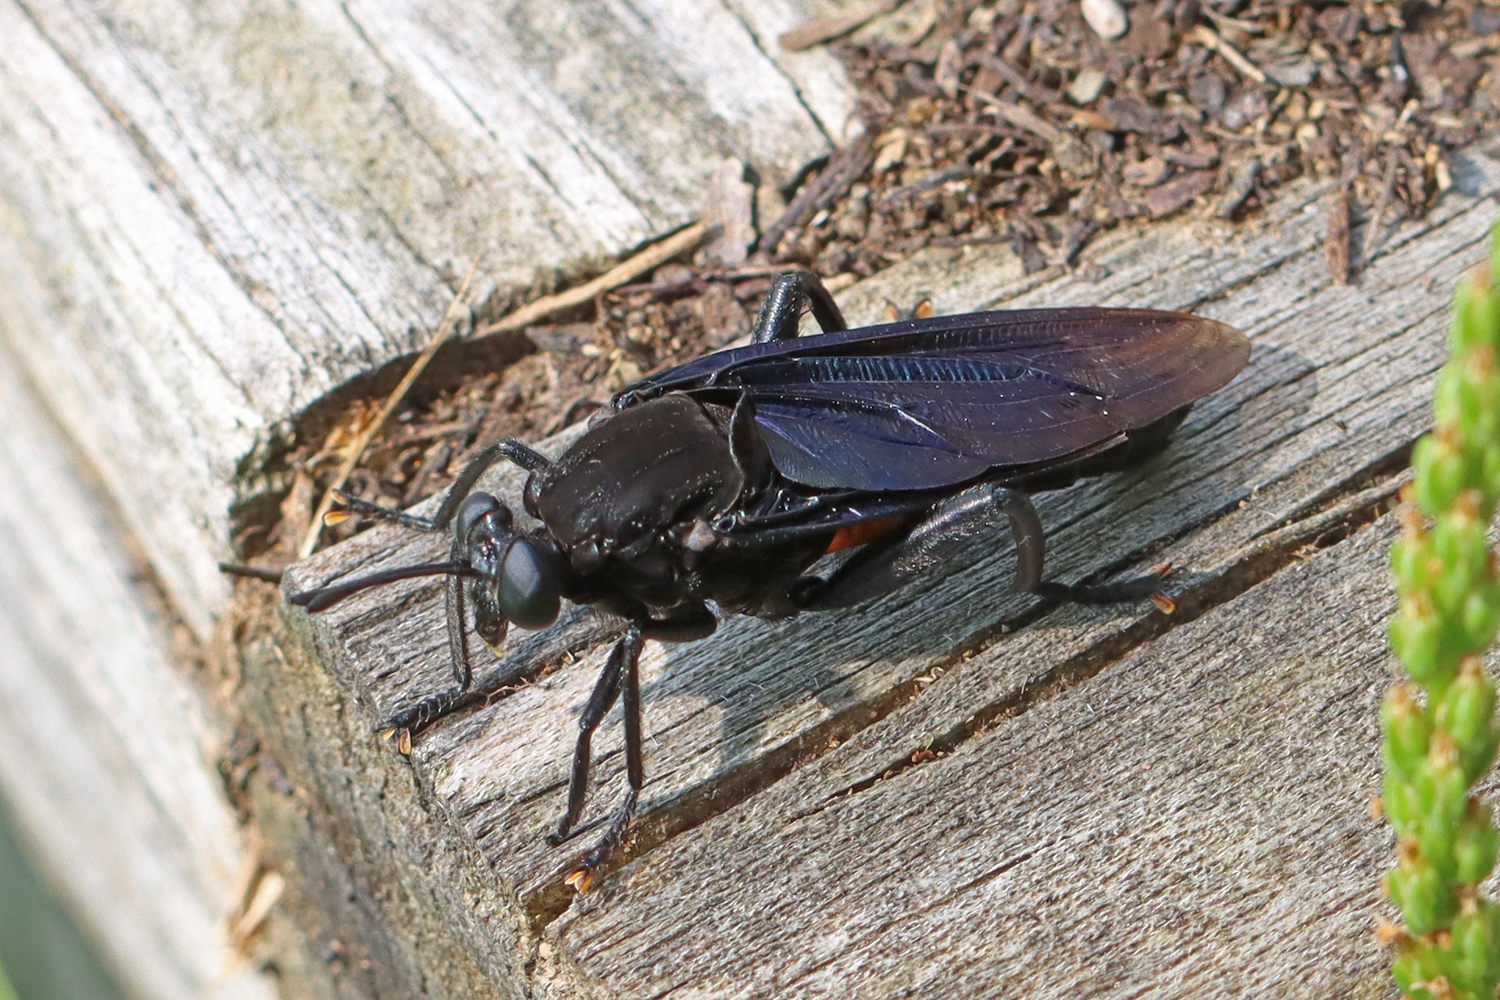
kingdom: Animalia
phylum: Arthropoda
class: Insecta
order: Diptera
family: Mydidae
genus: Mydas
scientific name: Mydas clavatus
